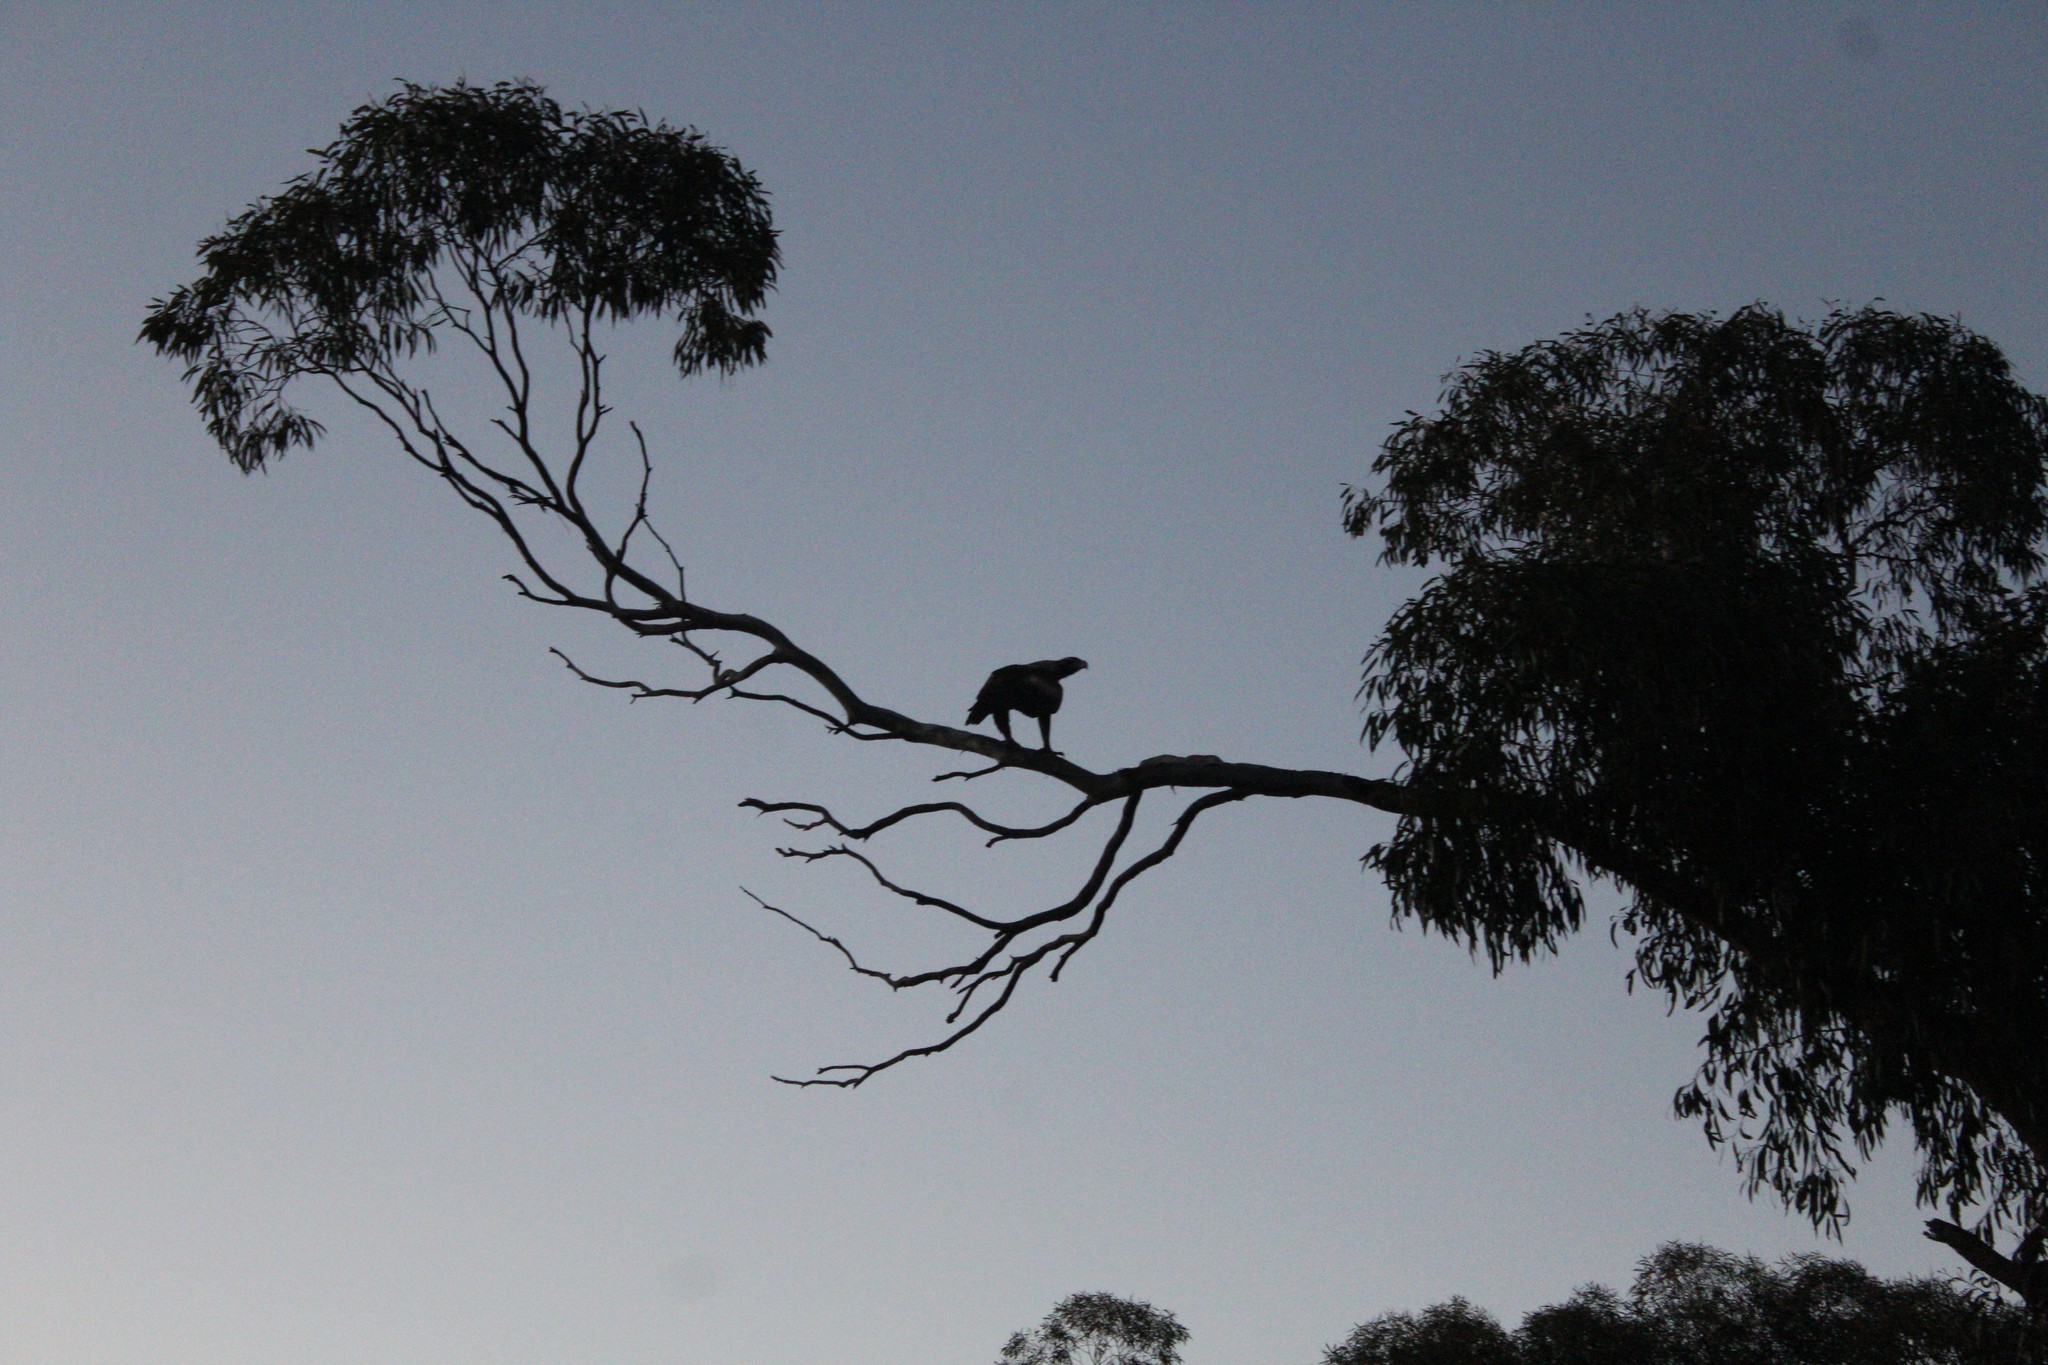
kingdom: Animalia
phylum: Chordata
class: Aves
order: Accipitriformes
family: Accipitridae
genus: Aquila
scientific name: Aquila audax
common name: Wedge-tailed eagle
